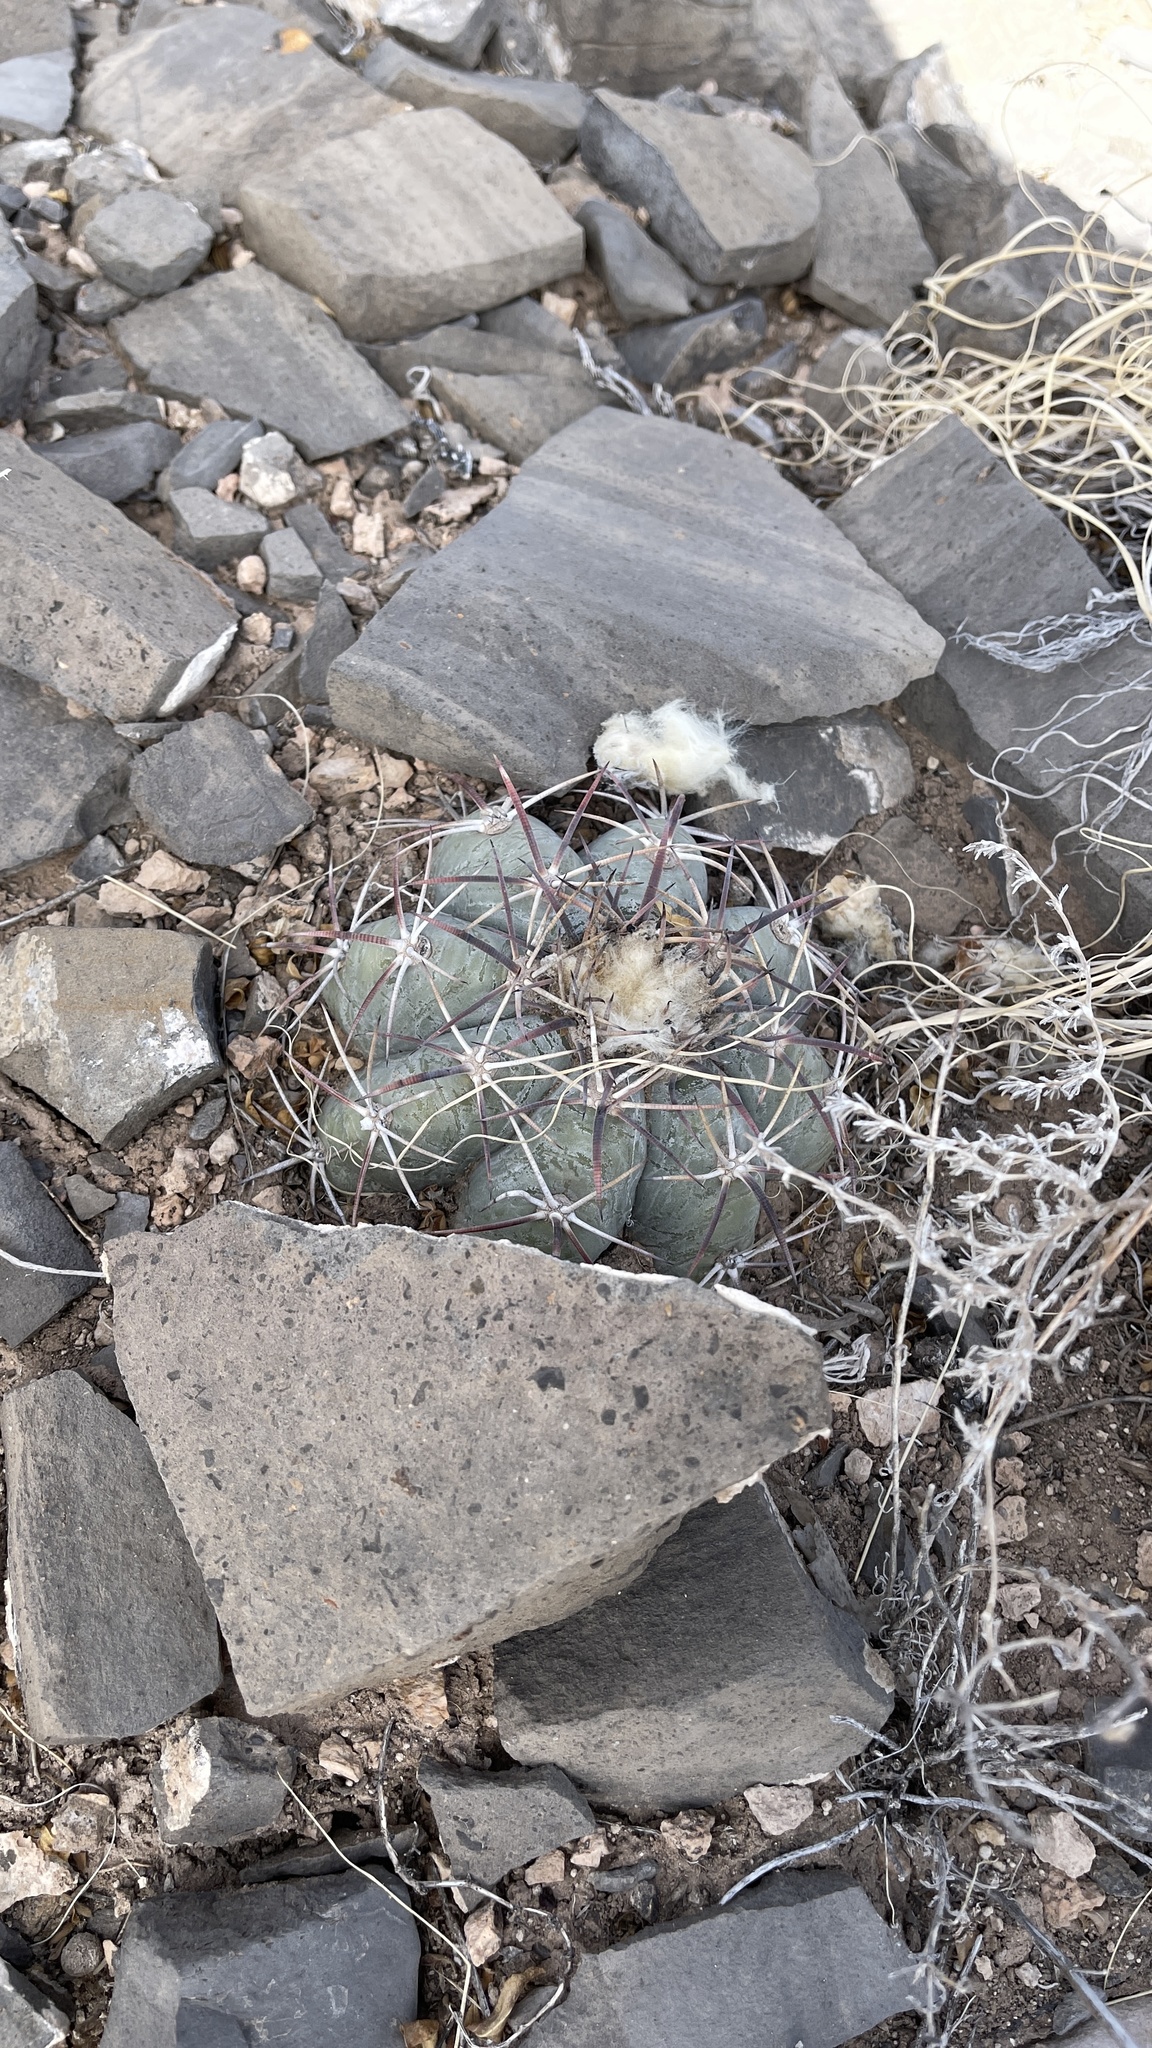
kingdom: Plantae
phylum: Tracheophyta
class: Magnoliopsida
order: Caryophyllales
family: Cactaceae
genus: Echinocactus
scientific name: Echinocactus horizonthalonius
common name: Devilshead
